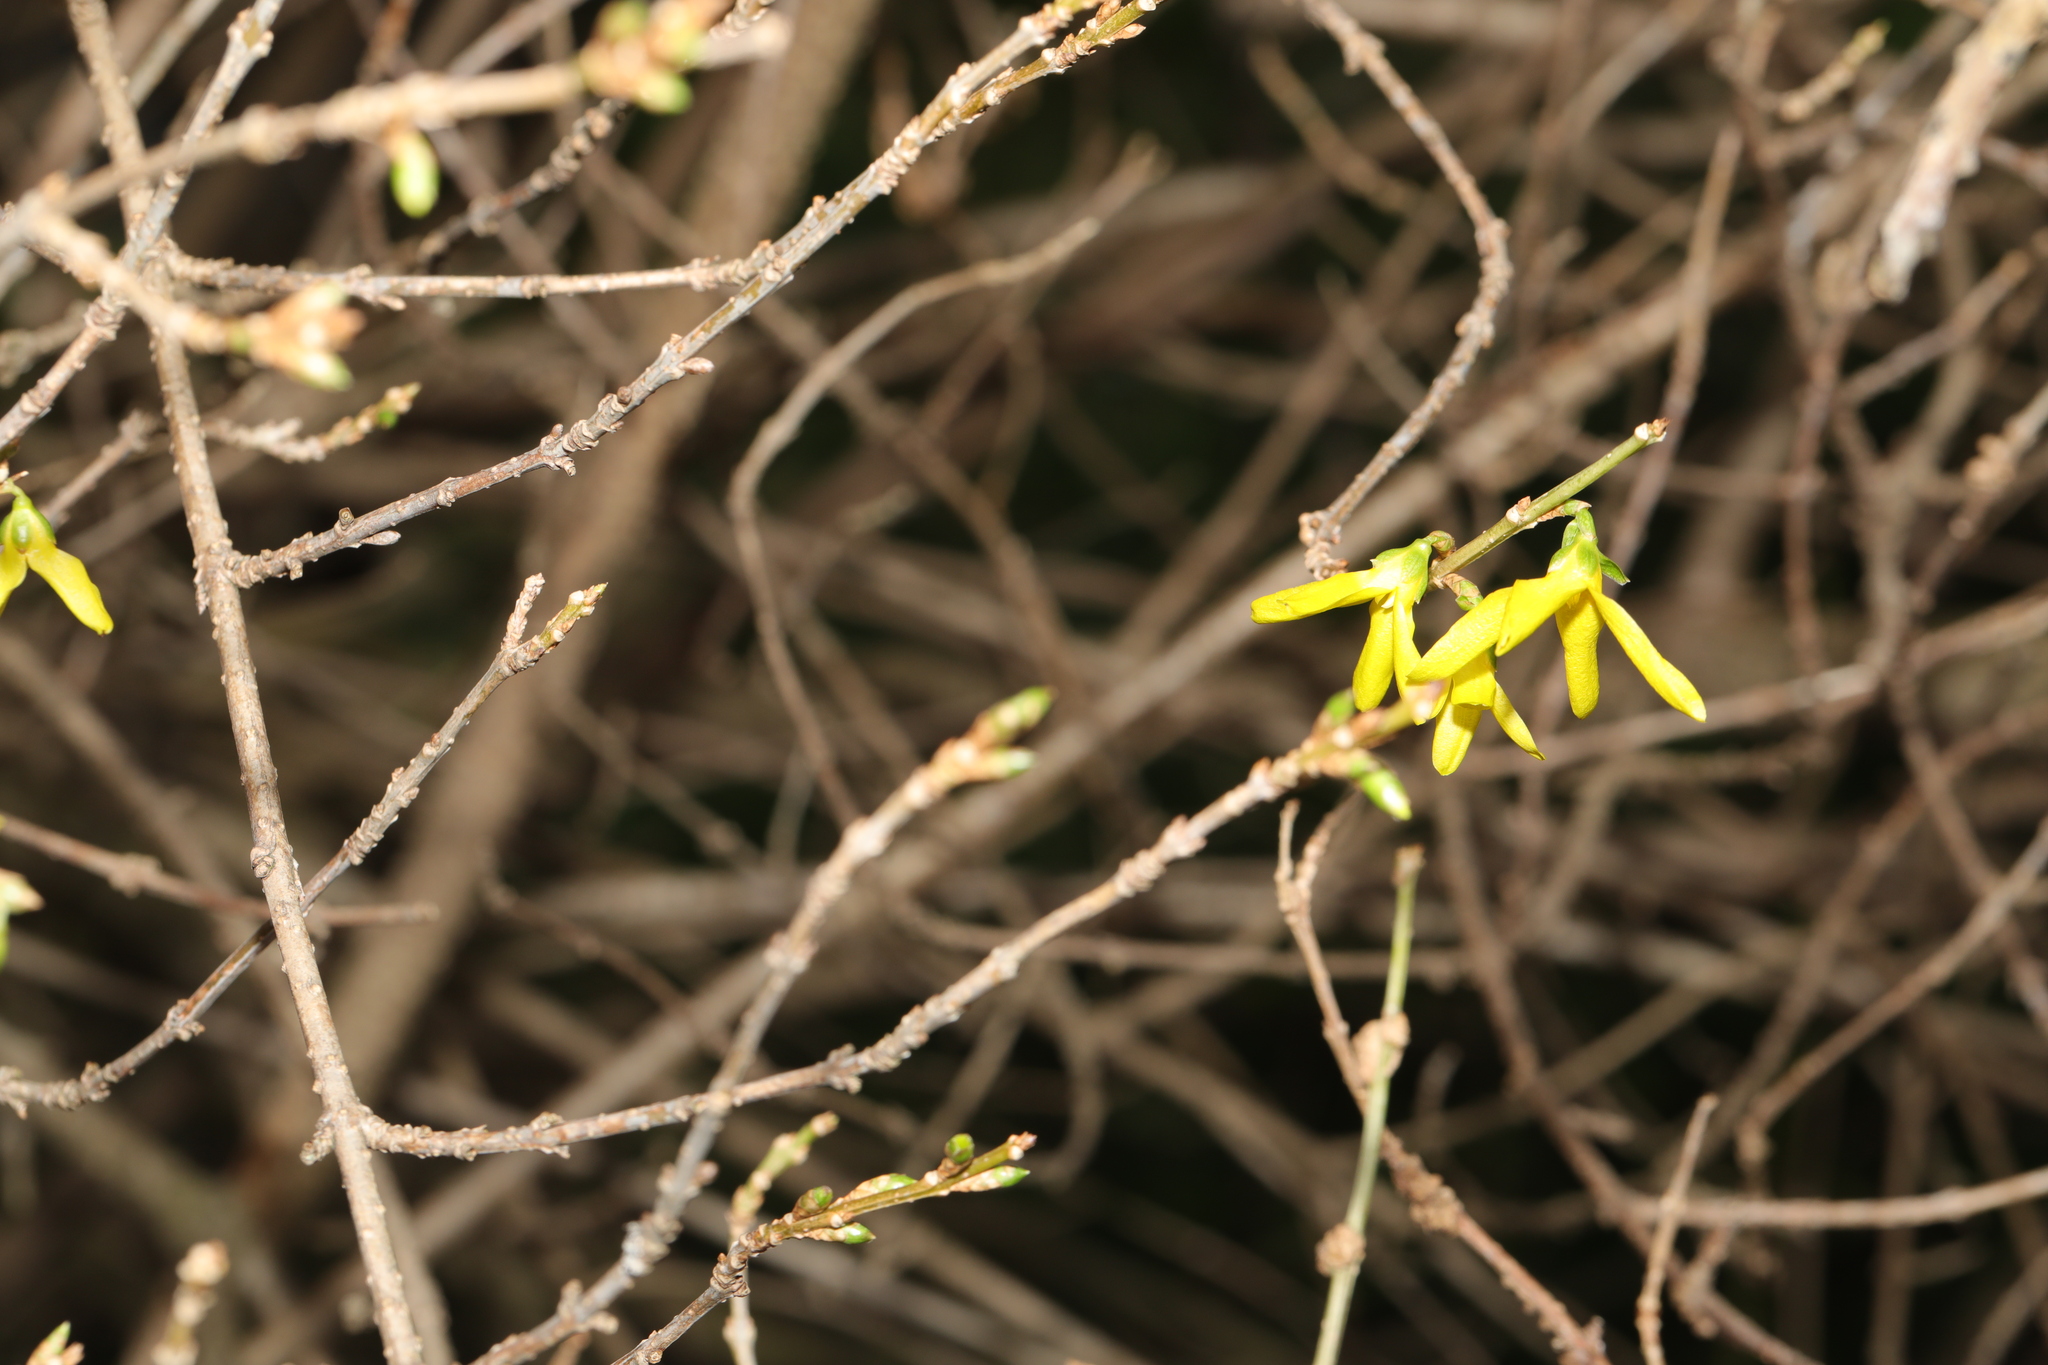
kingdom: Plantae
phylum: Tracheophyta
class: Magnoliopsida
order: Lamiales
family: Oleaceae
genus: Forsythia
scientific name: Forsythia intermedia
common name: Forsythia
